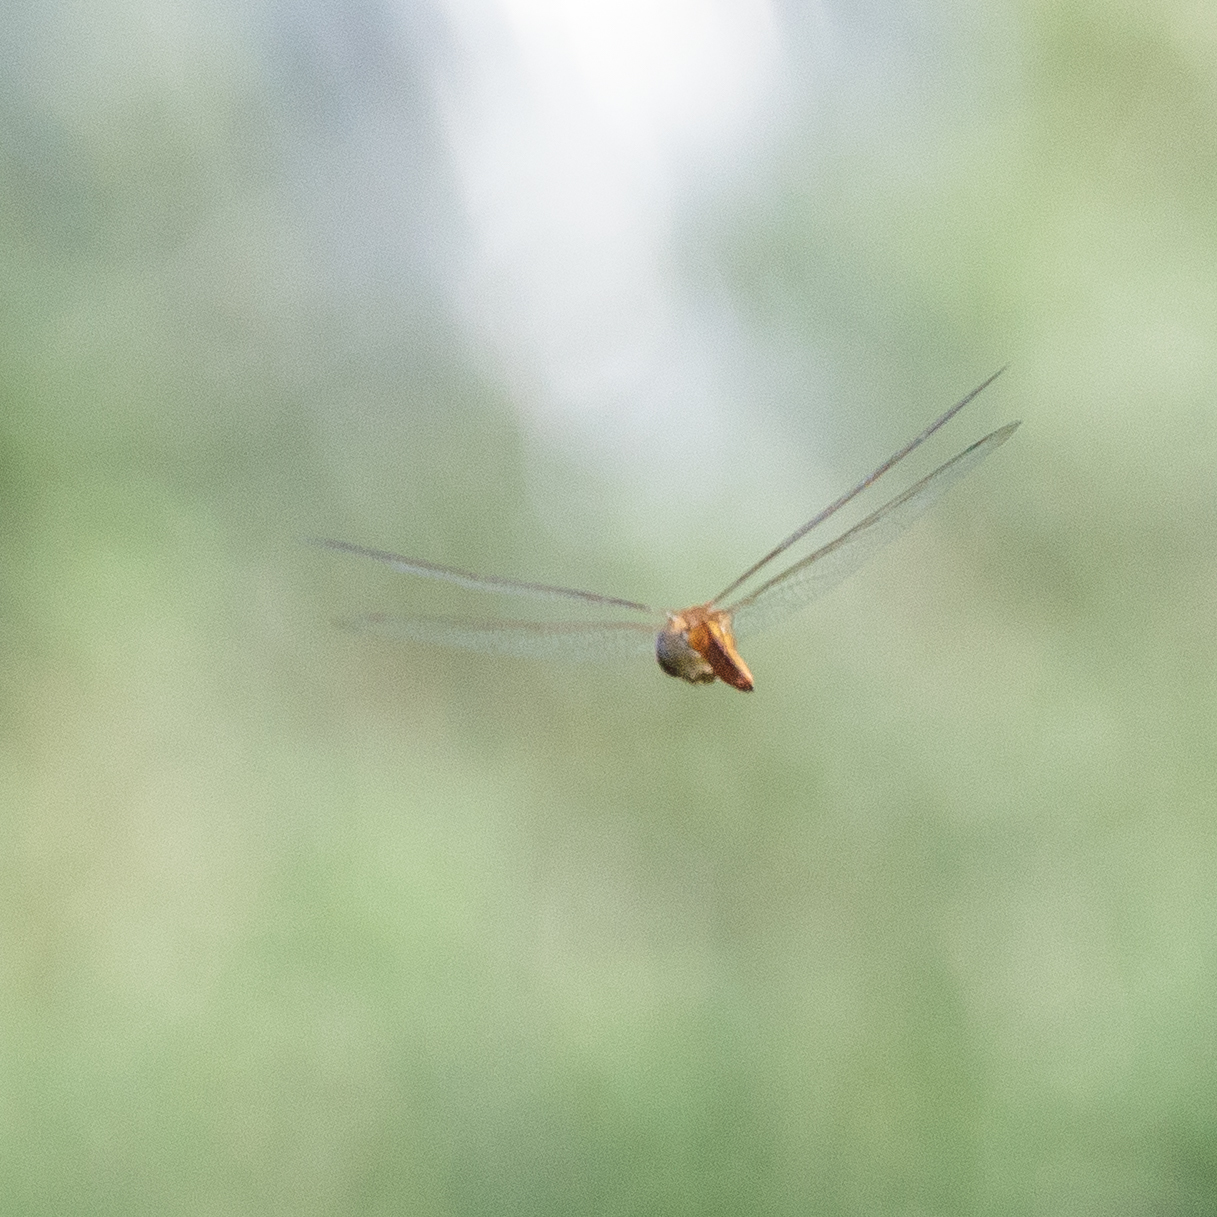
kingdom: Animalia
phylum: Arthropoda
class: Insecta
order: Odonata
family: Libellulidae
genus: Pantala
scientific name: Pantala flavescens
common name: Wandering glider
